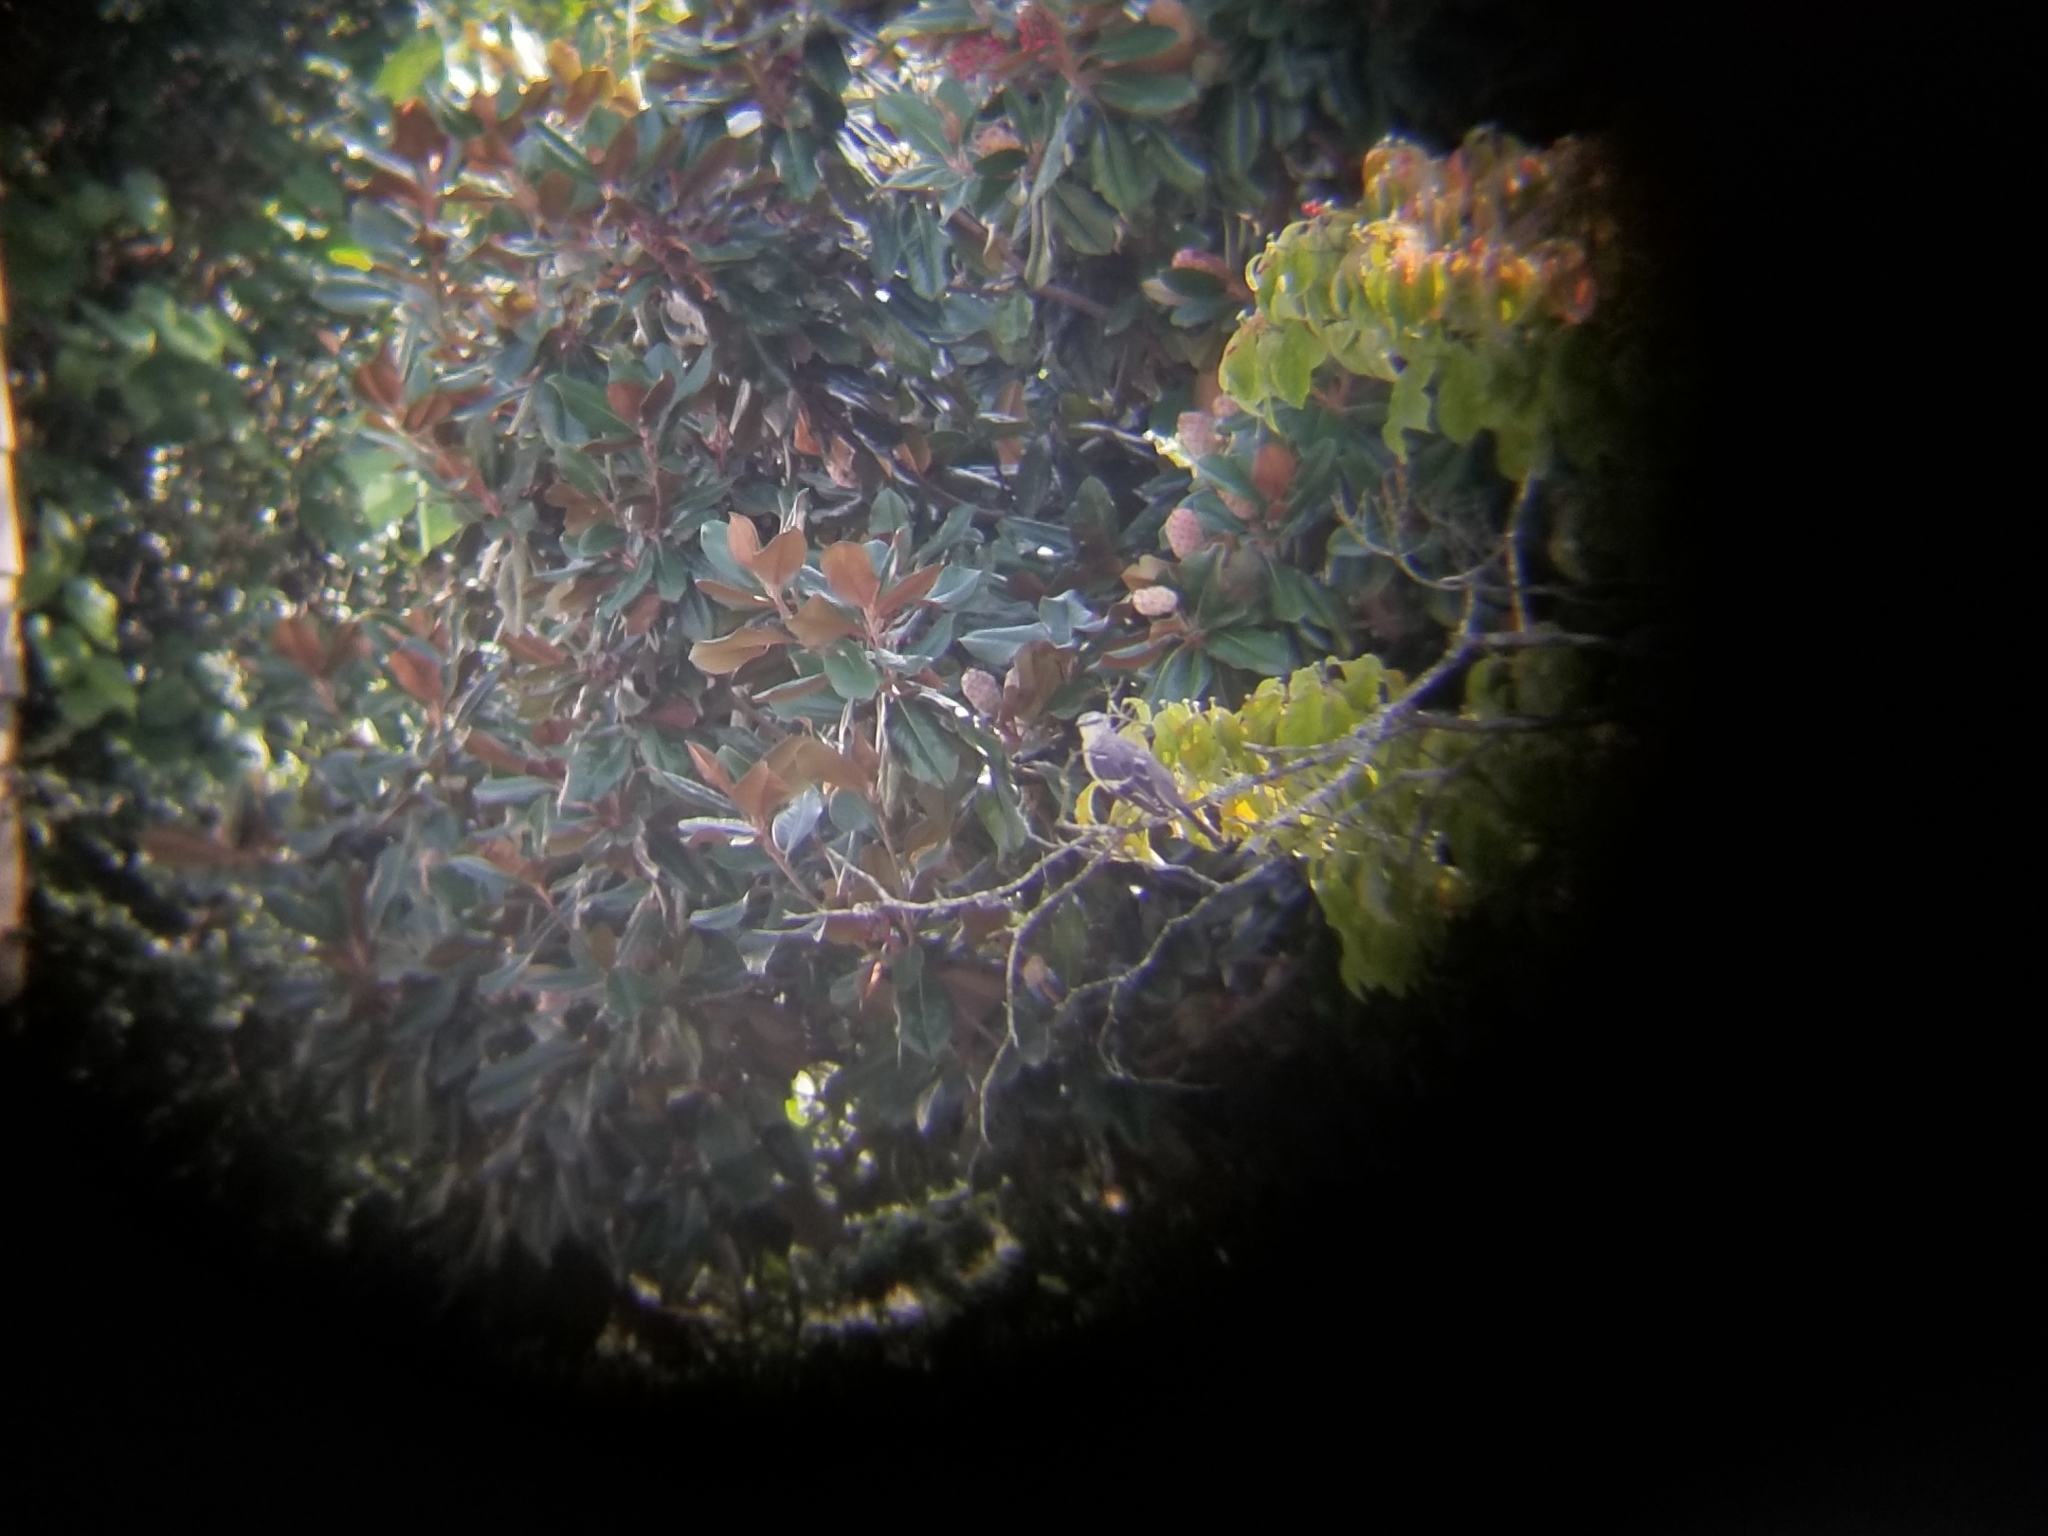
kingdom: Animalia
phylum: Chordata
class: Aves
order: Passeriformes
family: Mimidae
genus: Mimus
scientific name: Mimus polyglottos
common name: Northern mockingbird
